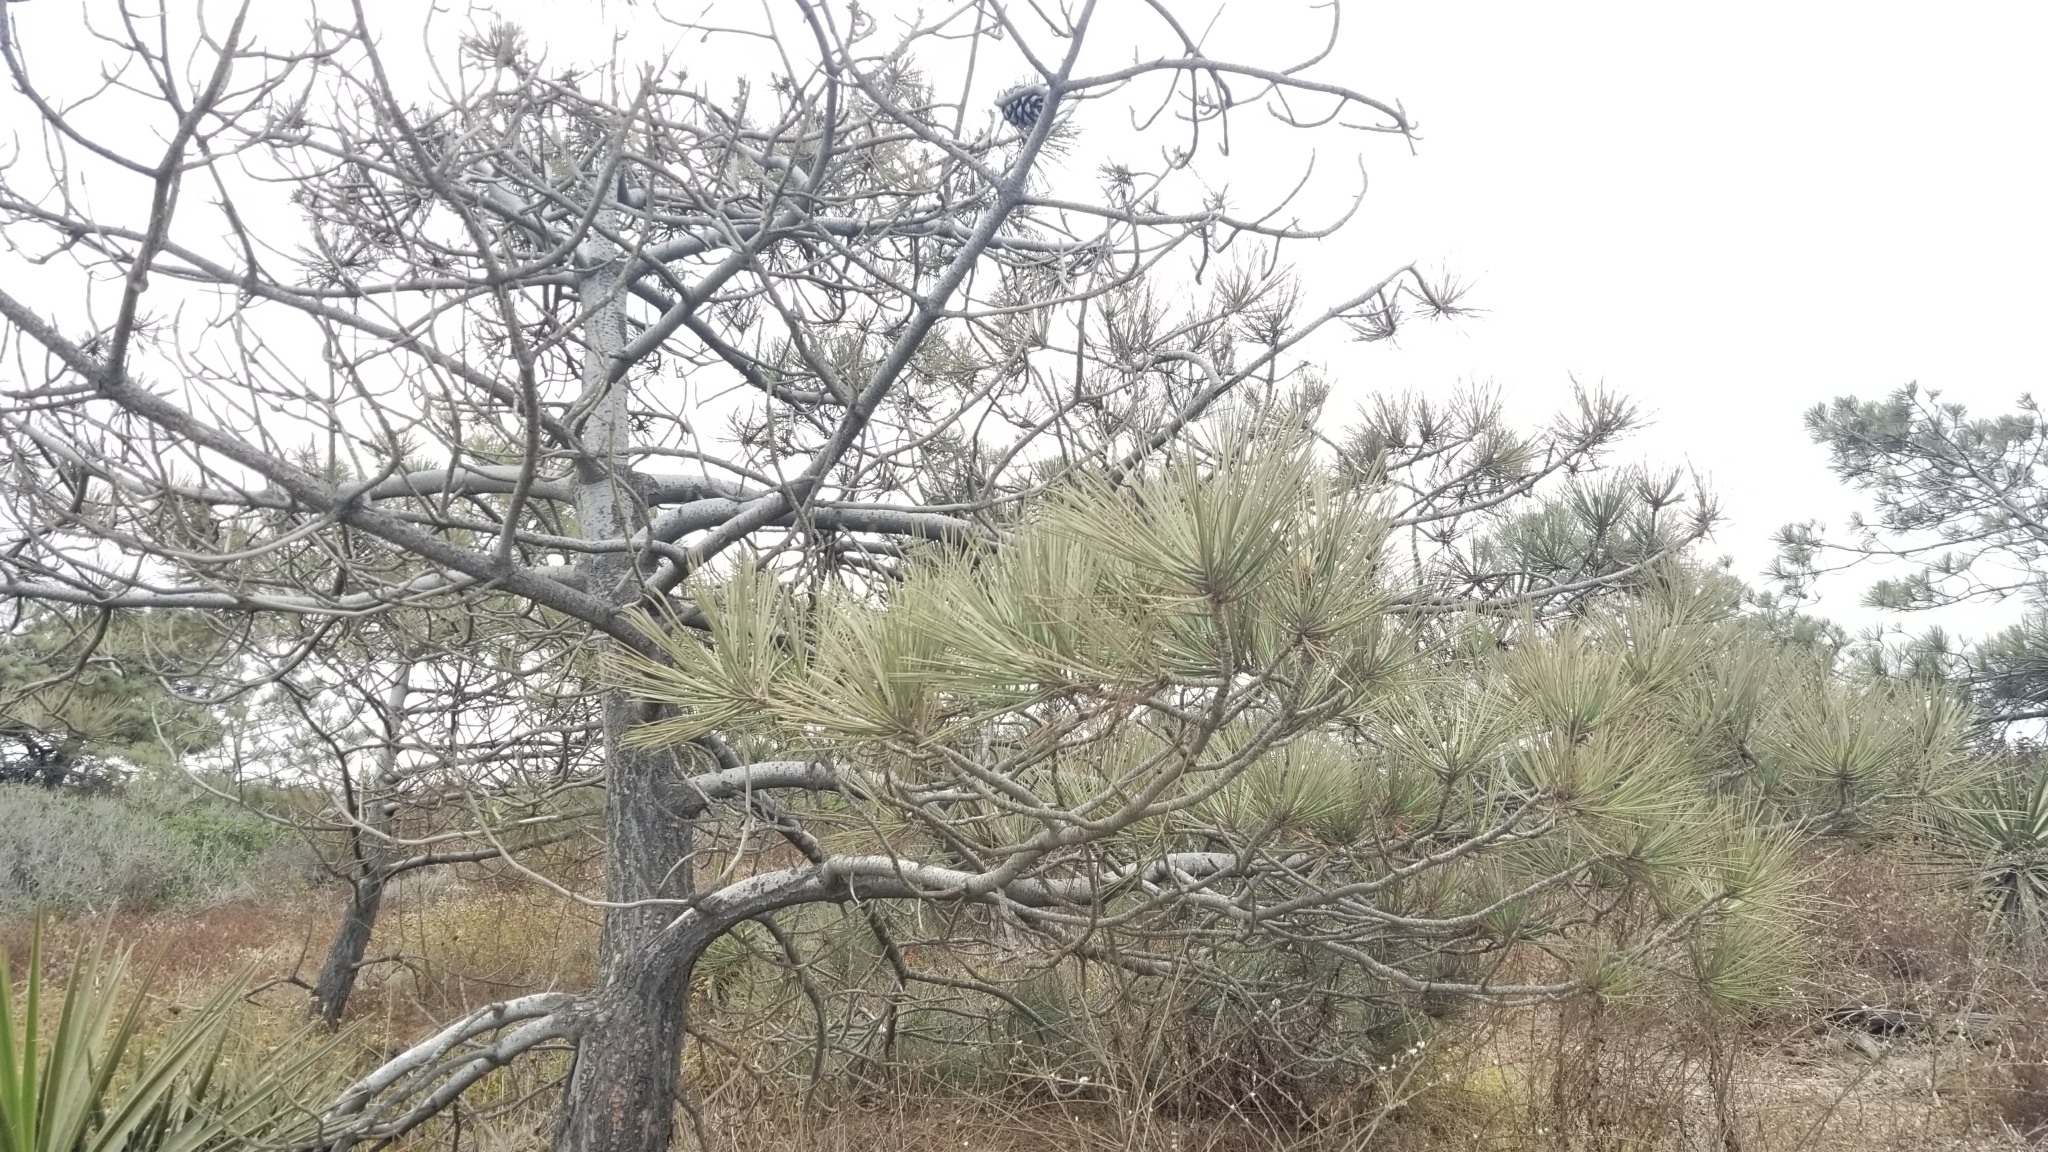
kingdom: Plantae
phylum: Tracheophyta
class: Pinopsida
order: Pinales
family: Pinaceae
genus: Pinus
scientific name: Pinus torreyana
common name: Torrey pine
